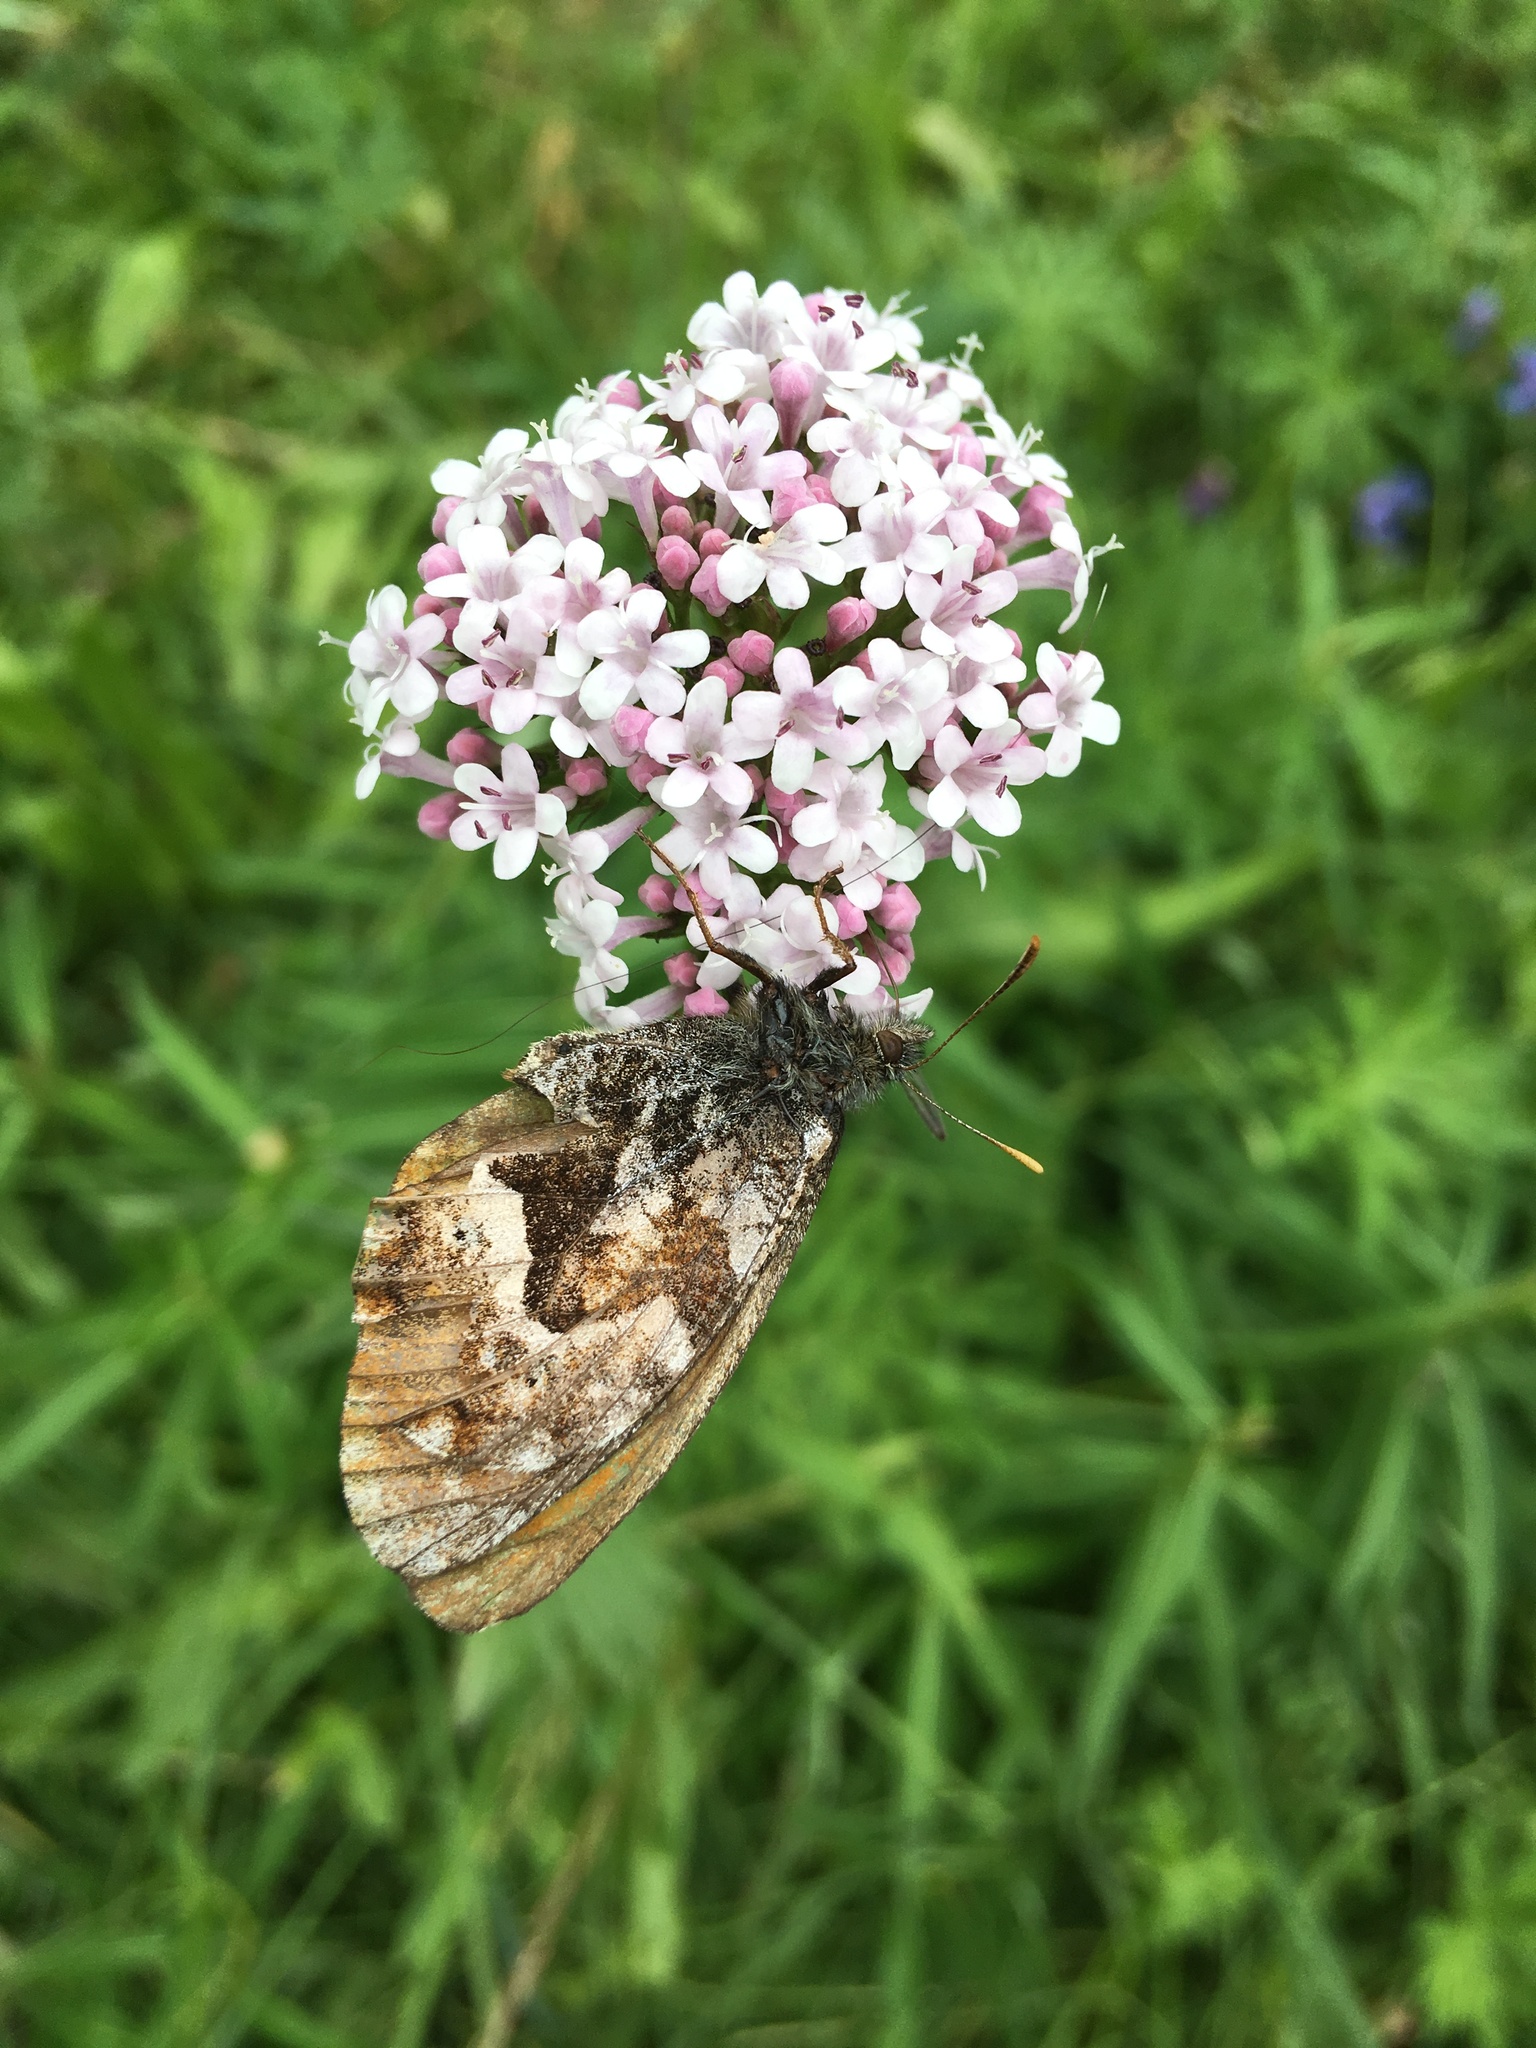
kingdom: Animalia
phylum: Arthropoda
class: Insecta
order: Lepidoptera
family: Nymphalidae
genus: Oeneis
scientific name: Oeneis urda
